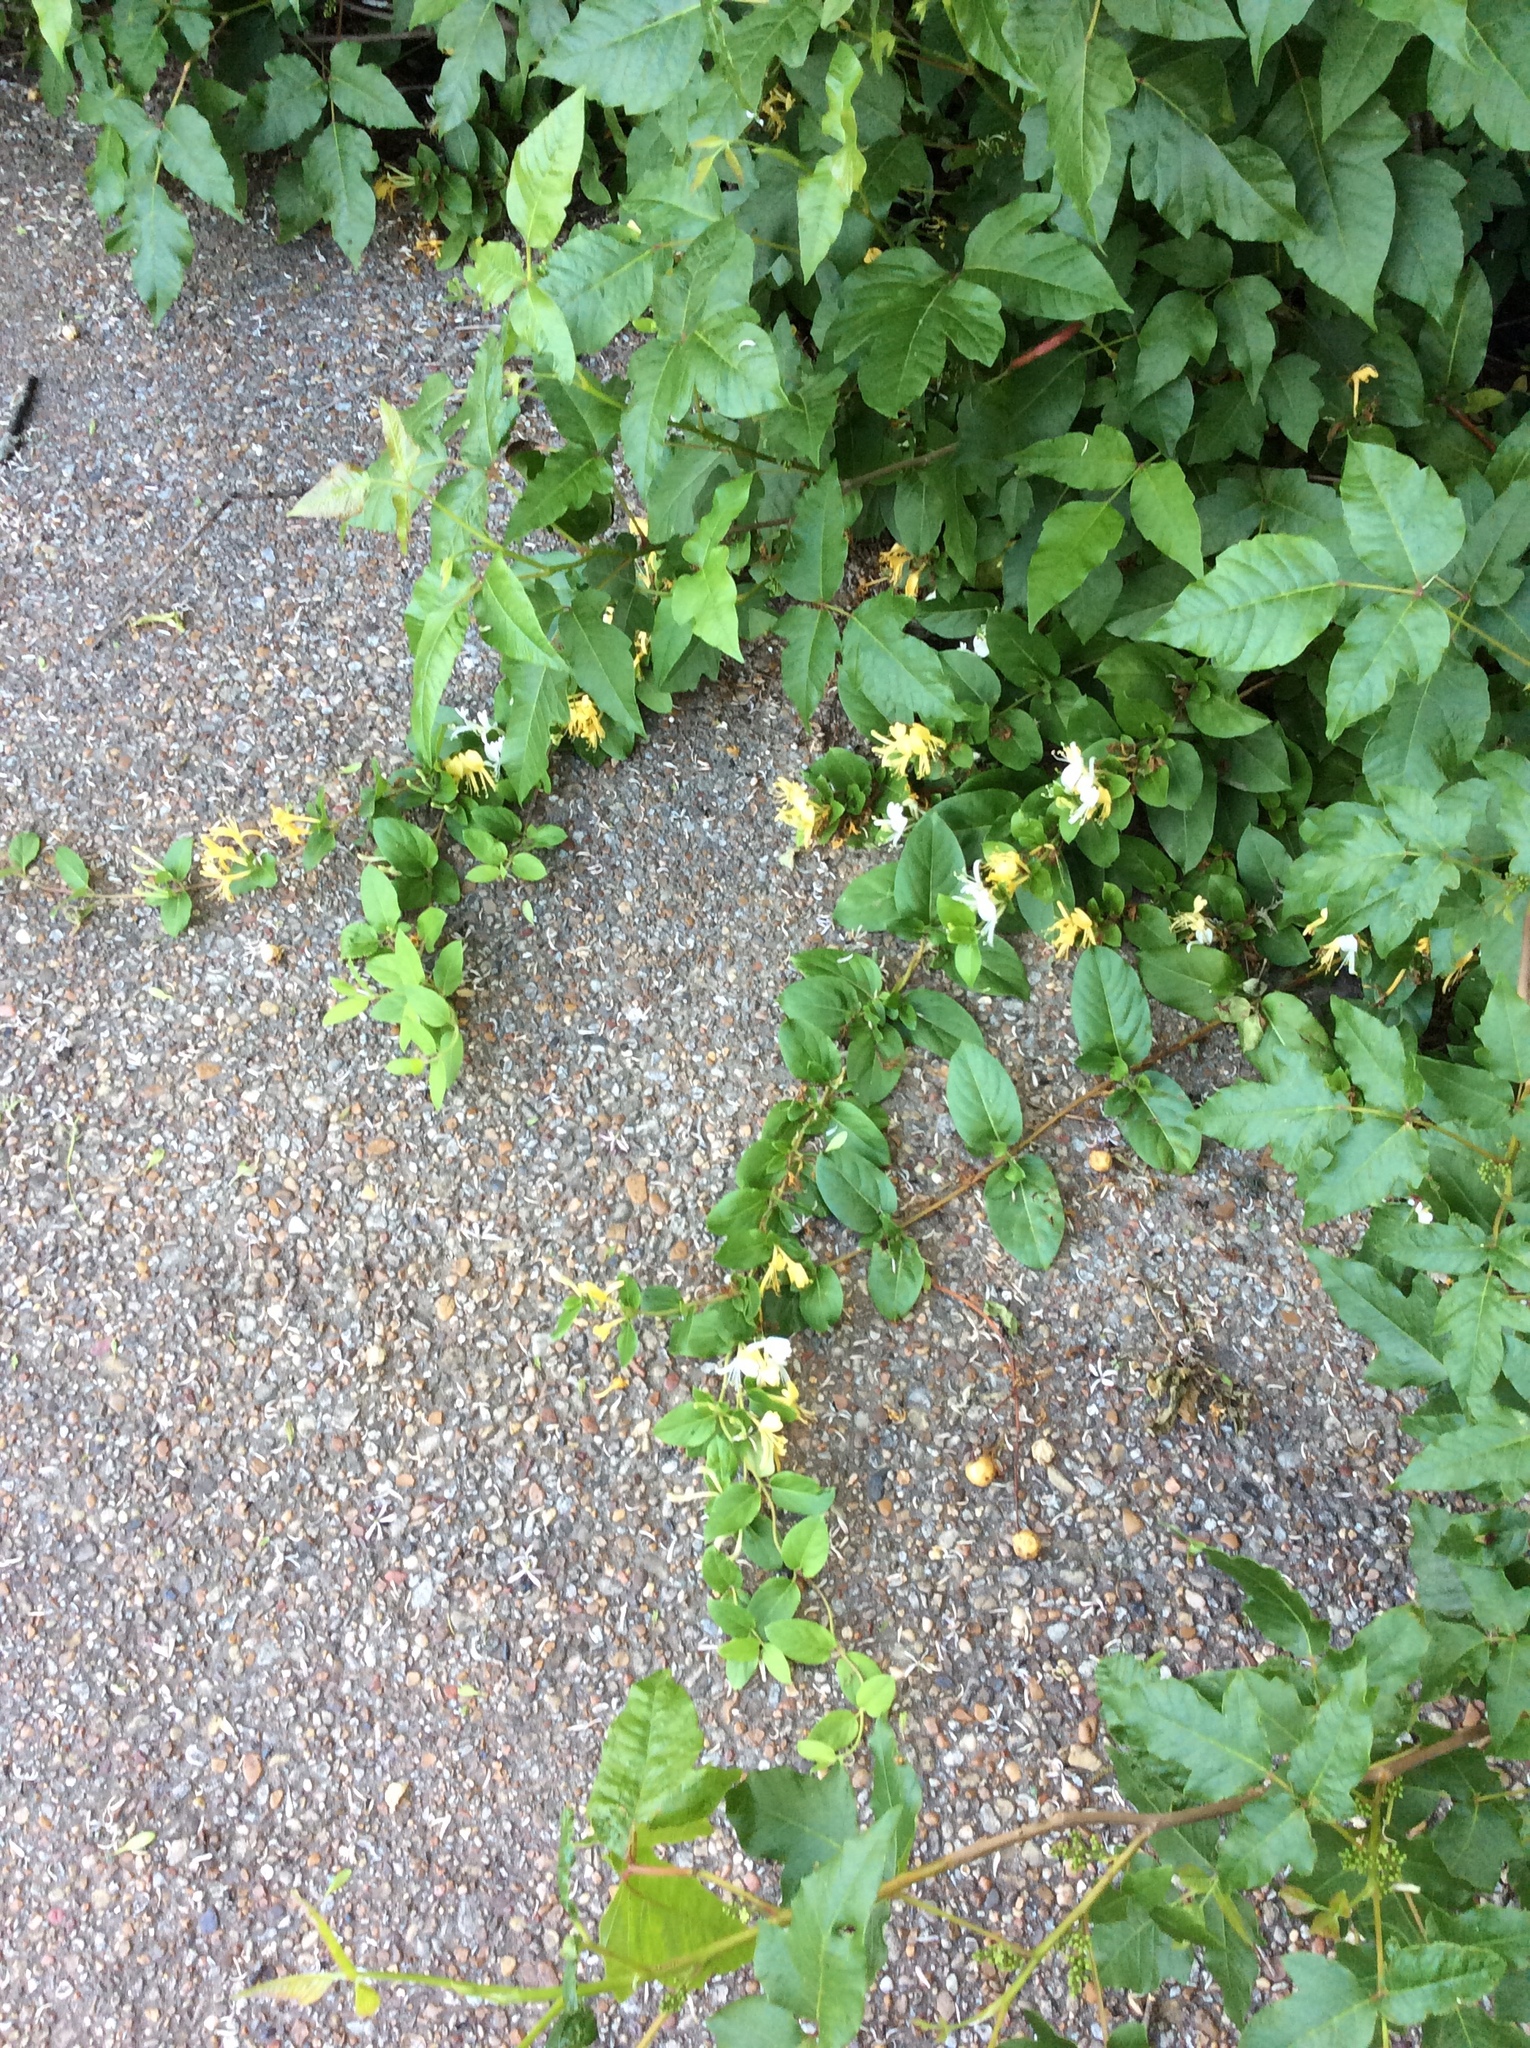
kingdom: Plantae
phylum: Tracheophyta
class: Magnoliopsida
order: Dipsacales
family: Caprifoliaceae
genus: Lonicera
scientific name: Lonicera japonica
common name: Japanese honeysuckle
